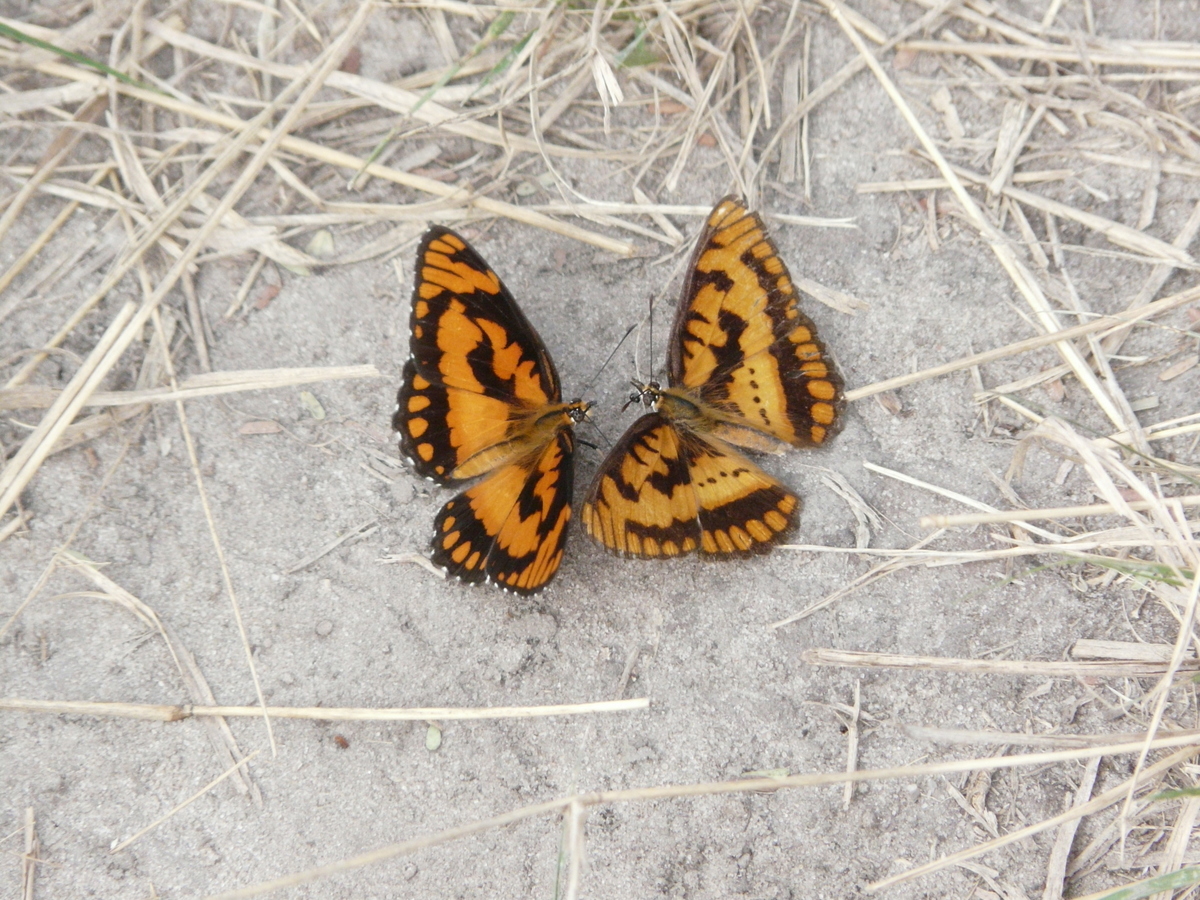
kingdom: Animalia
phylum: Arthropoda
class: Insecta
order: Lepidoptera
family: Nymphalidae
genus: Byblia
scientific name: Byblia acheloia
